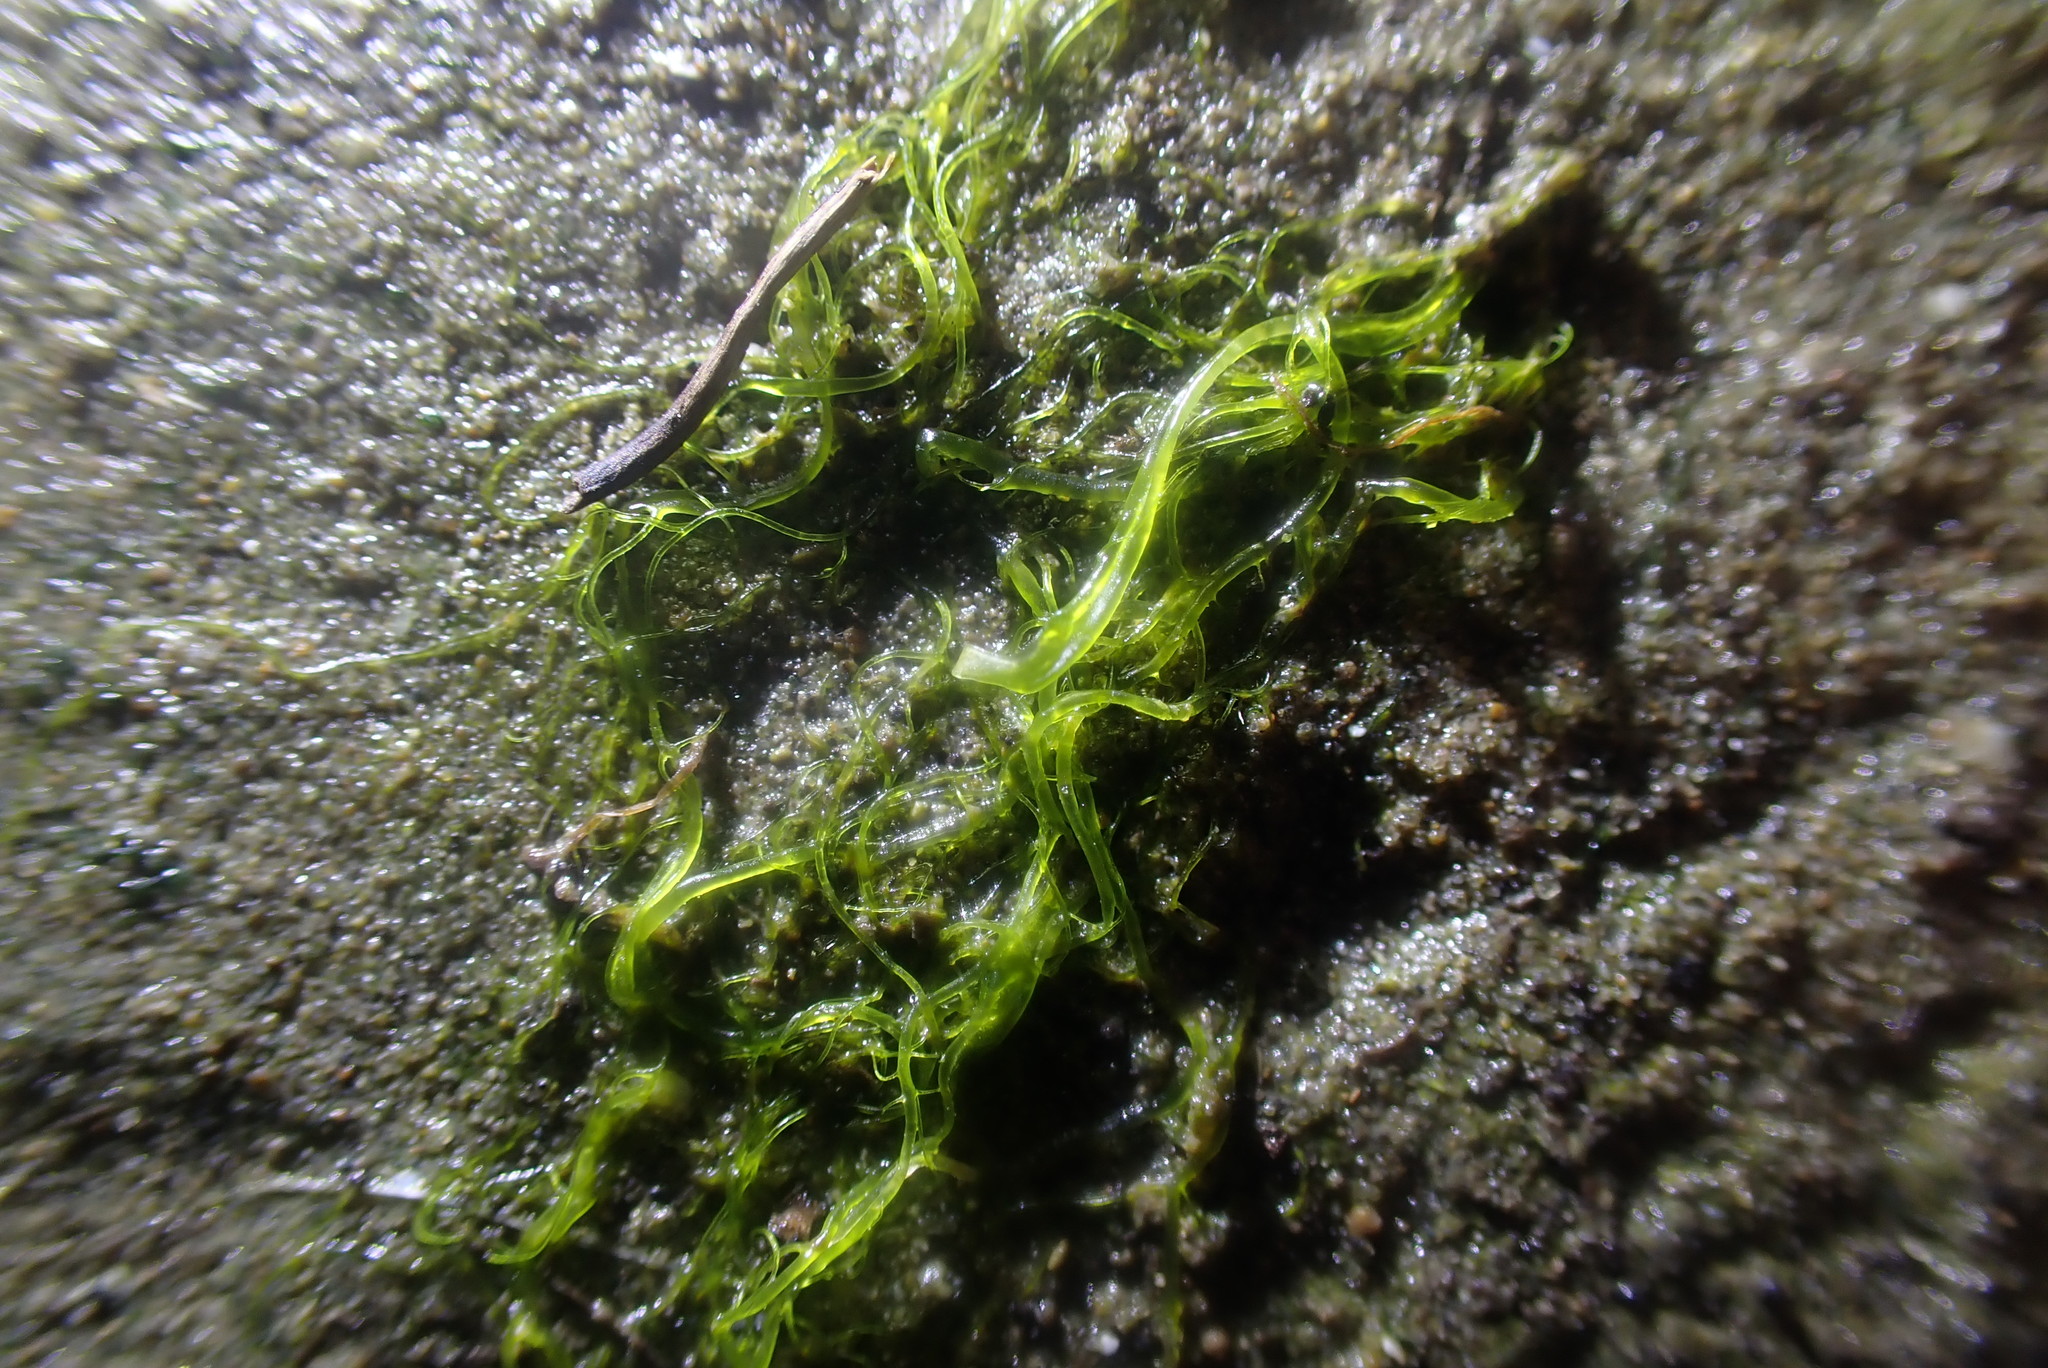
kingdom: Plantae
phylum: Chlorophyta
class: Ulvophyceae
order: Ulvales
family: Ulvaceae
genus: Ulva
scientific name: Ulva compressa
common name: Thread weed
